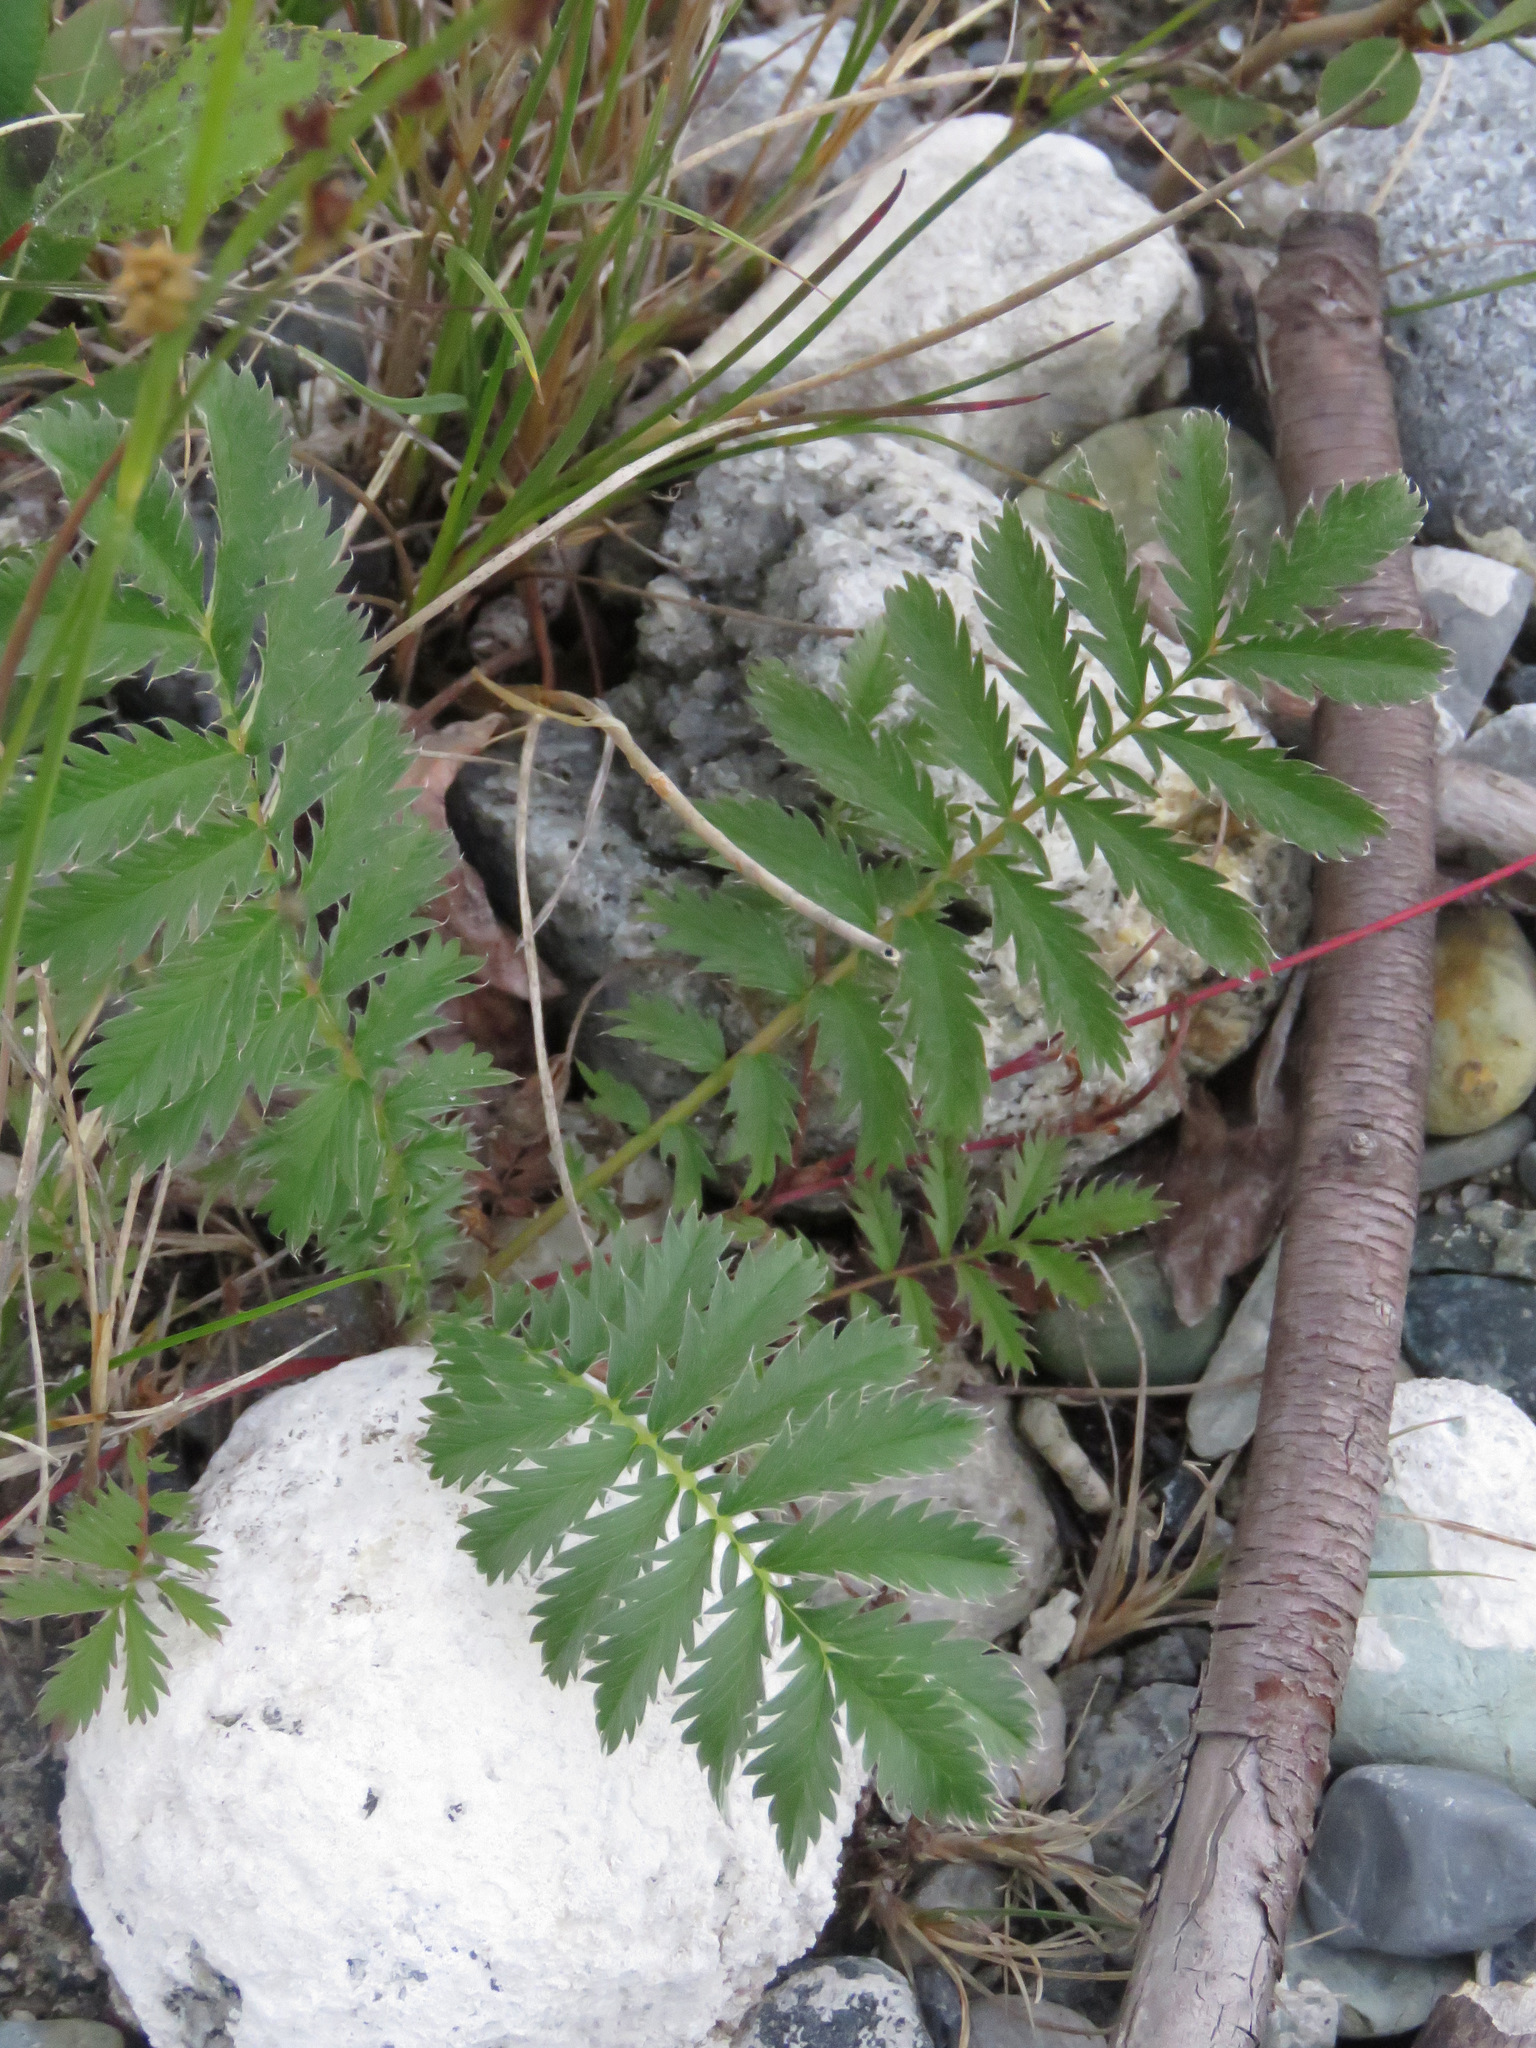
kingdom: Plantae
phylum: Tracheophyta
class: Magnoliopsida
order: Rosales
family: Rosaceae
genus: Argentina
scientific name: Argentina anserina
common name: Common silverweed
